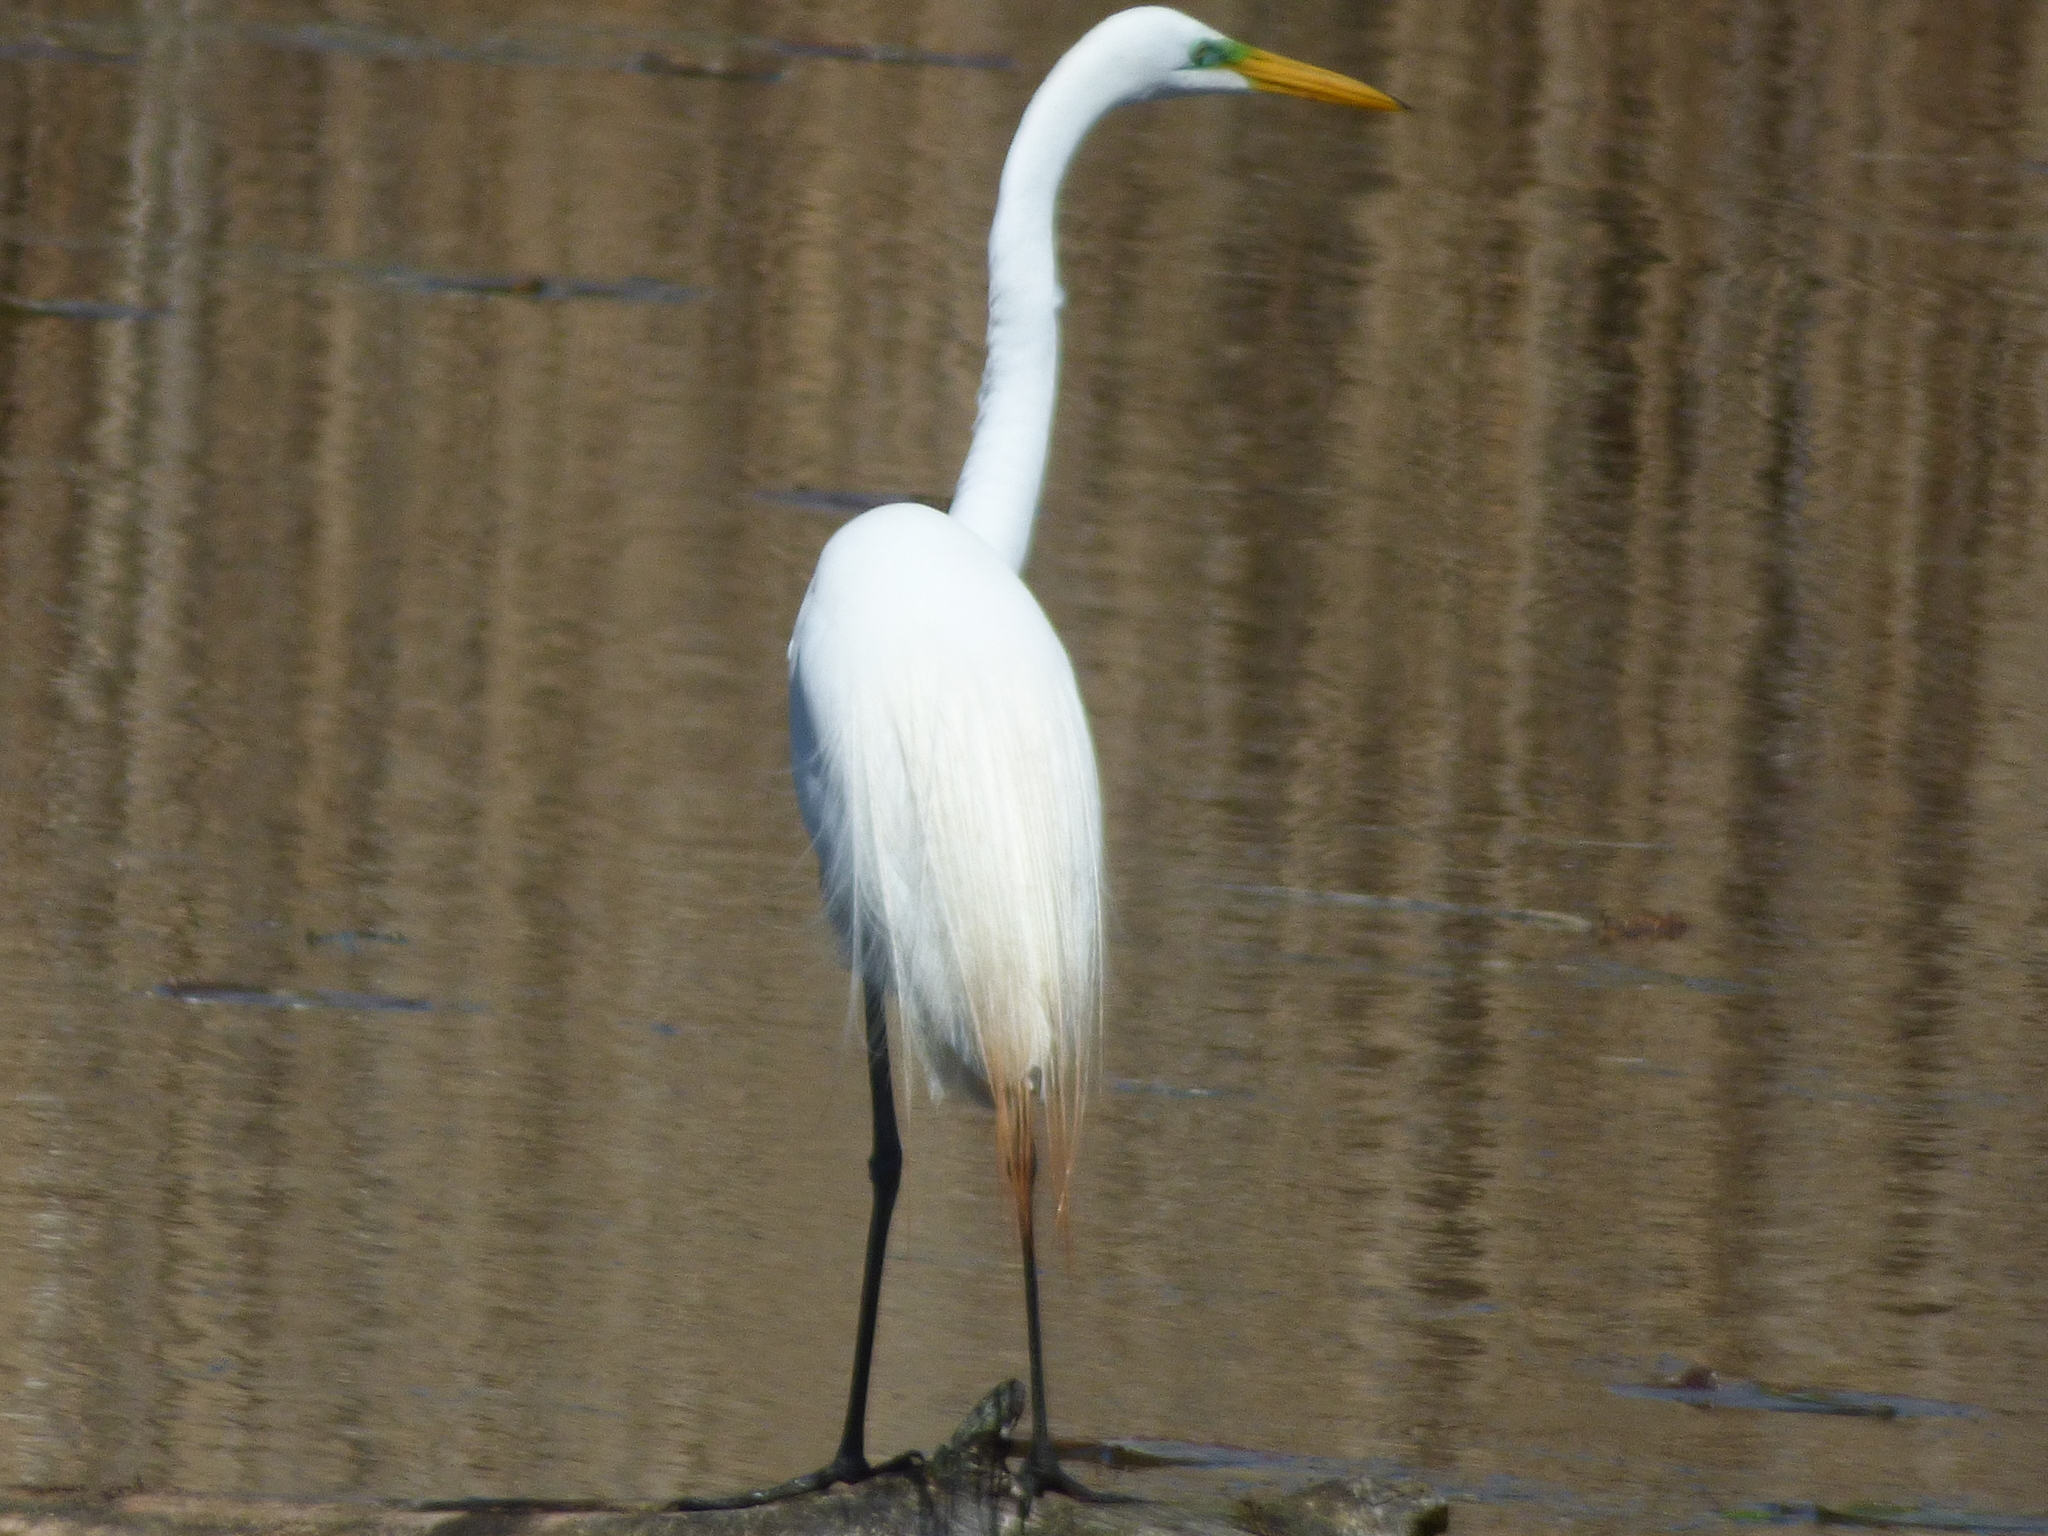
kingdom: Animalia
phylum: Chordata
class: Aves
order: Pelecaniformes
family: Ardeidae
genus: Ardea
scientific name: Ardea alba
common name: Great egret
